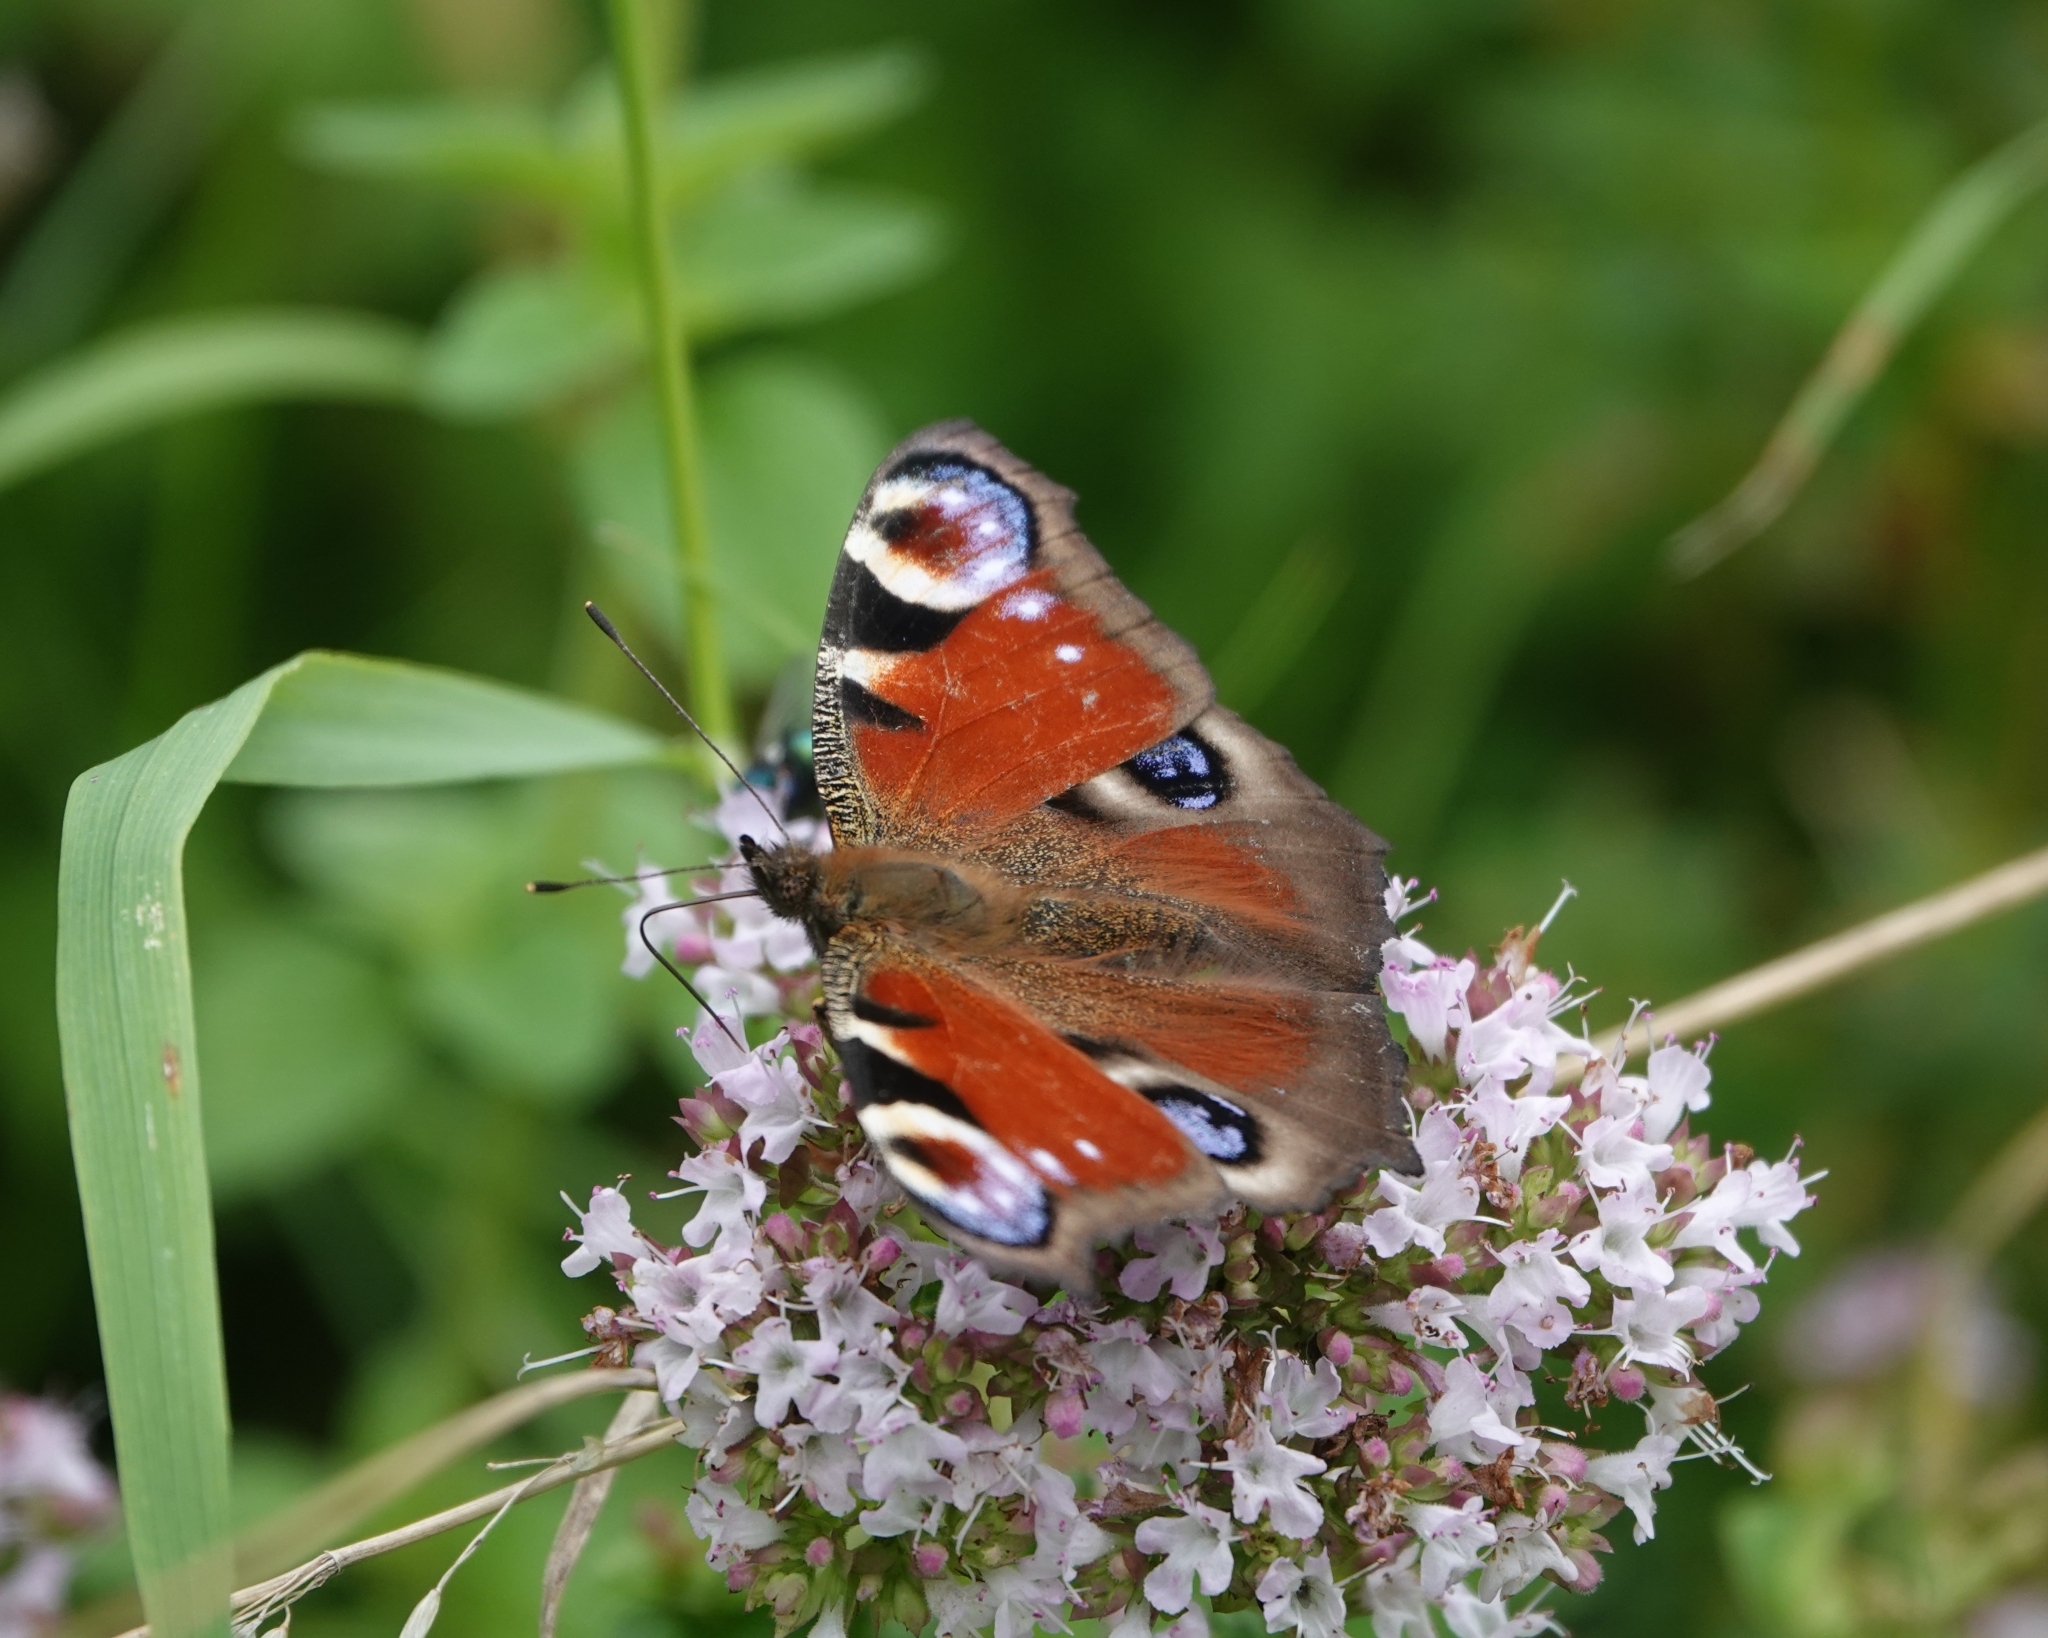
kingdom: Animalia
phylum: Arthropoda
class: Insecta
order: Lepidoptera
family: Nymphalidae
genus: Aglais
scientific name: Aglais io
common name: Peacock
